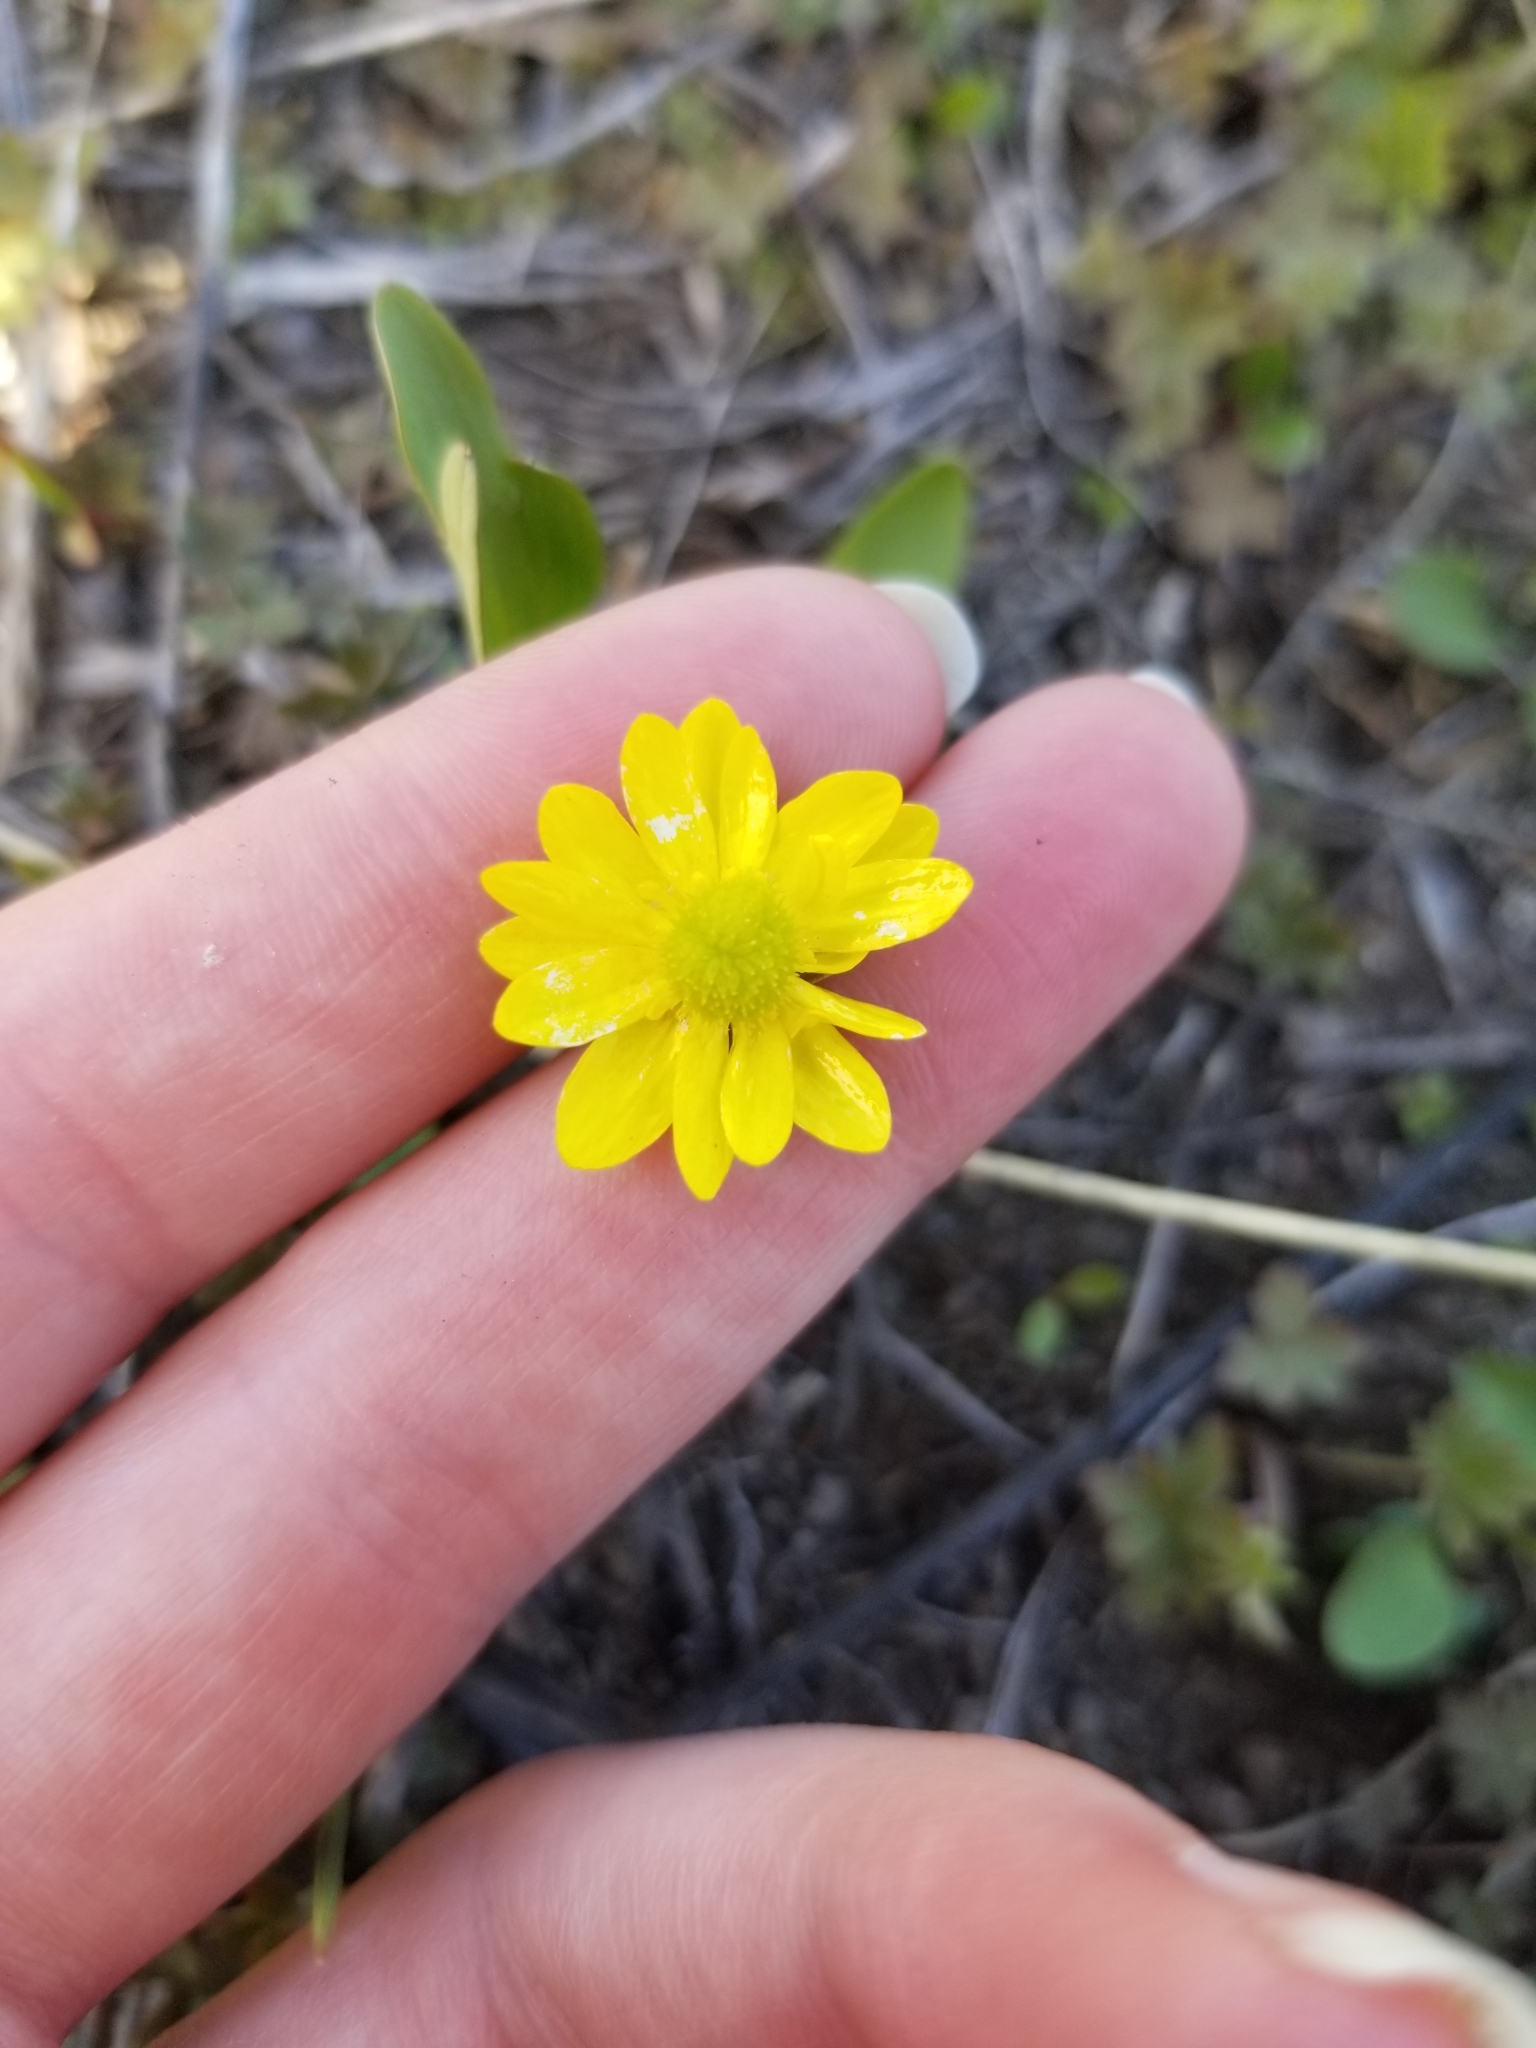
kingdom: Plantae
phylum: Tracheophyta
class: Magnoliopsida
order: Ranunculales
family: Ranunculaceae
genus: Ranunculus
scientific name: Ranunculus glaberrimus
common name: Sagebrush buttercup
